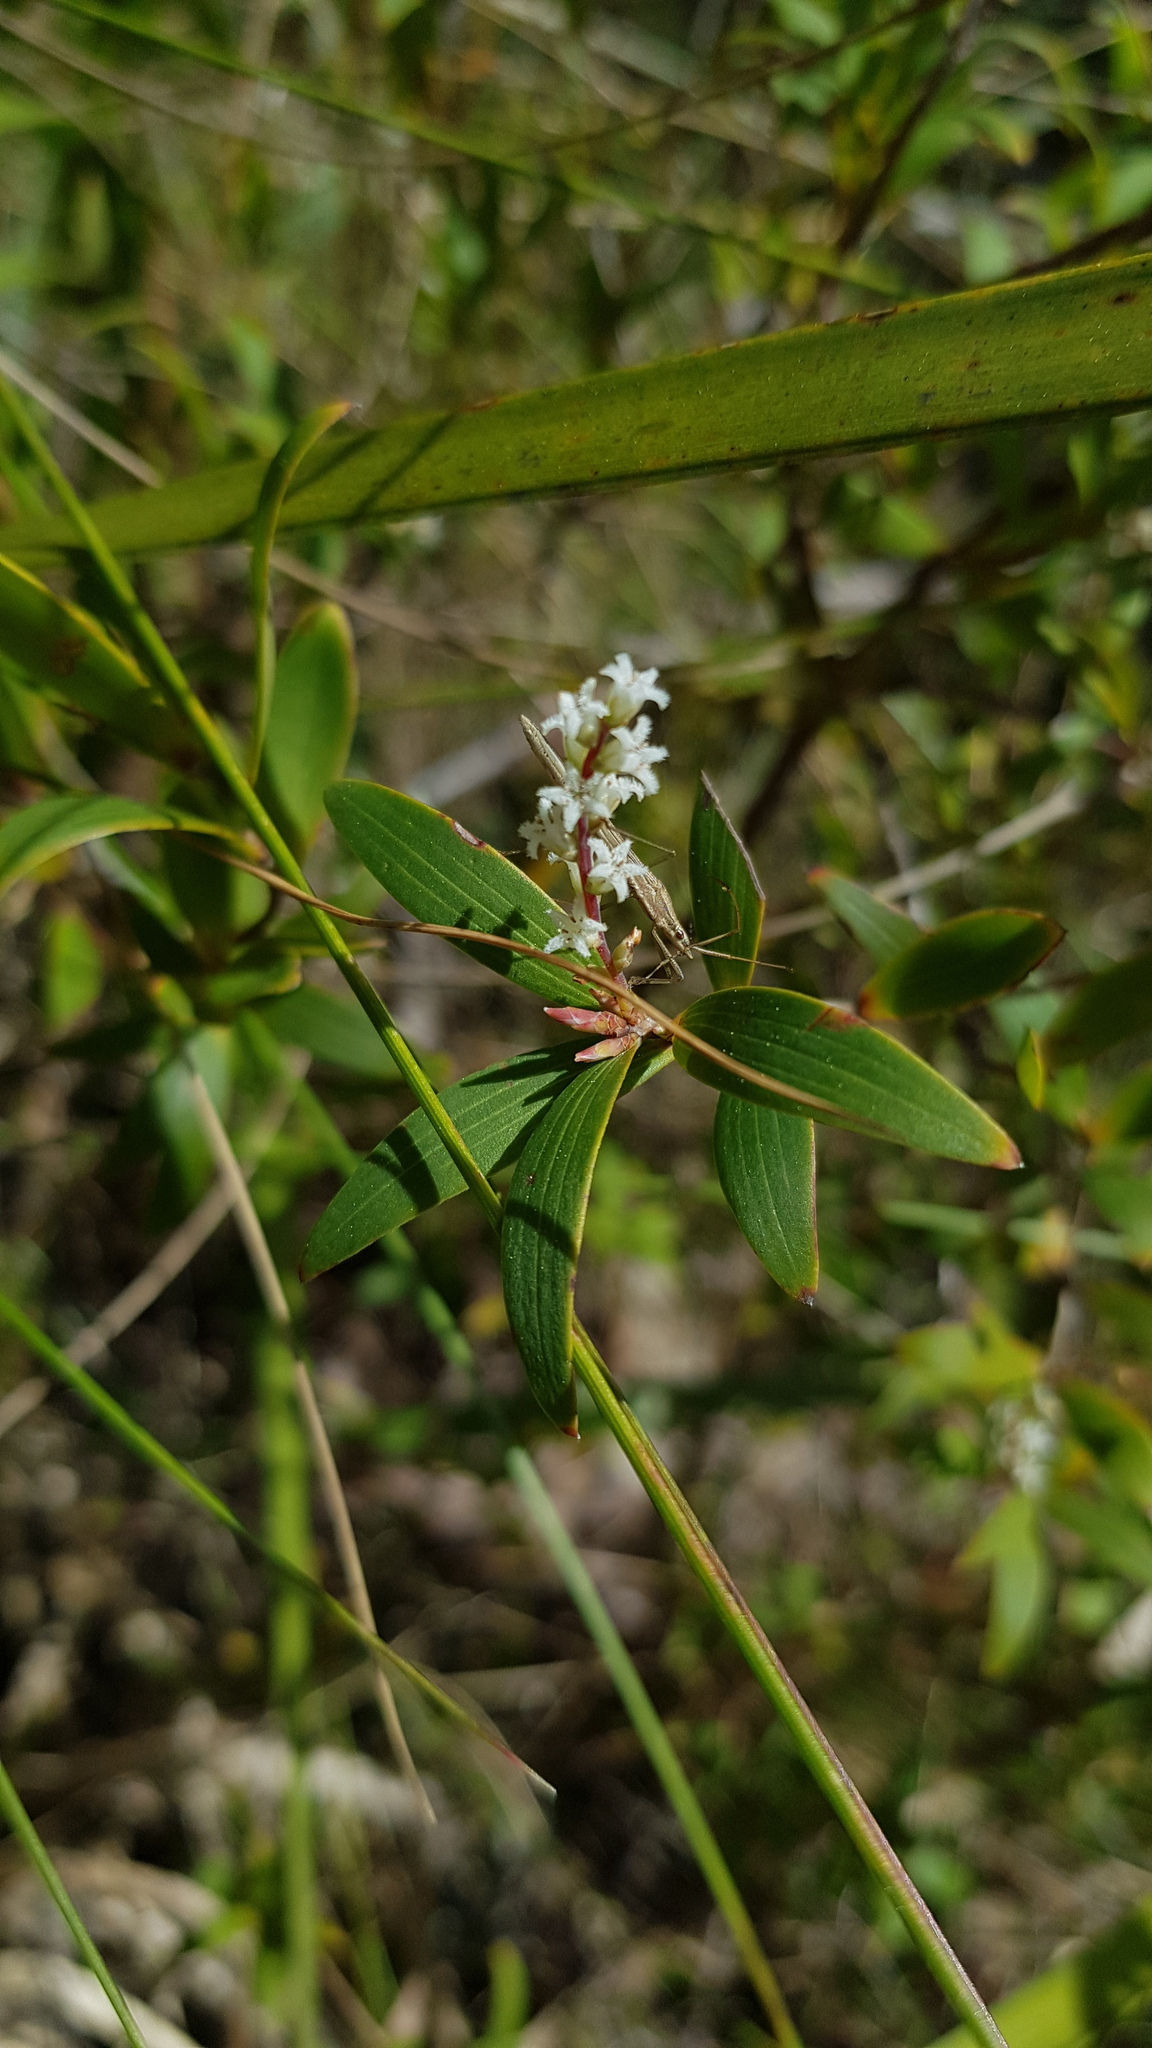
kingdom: Plantae
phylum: Tracheophyta
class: Magnoliopsida
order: Ericales
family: Ericaceae
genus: Leucopogon
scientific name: Leucopogon lanceolatus
